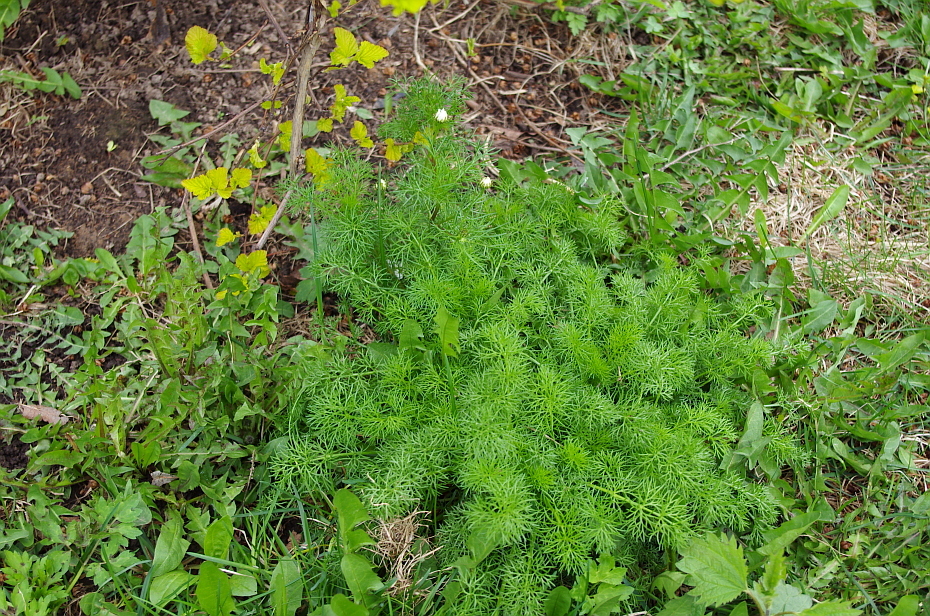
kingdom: Plantae
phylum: Tracheophyta
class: Magnoliopsida
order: Asterales
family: Asteraceae
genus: Tripleurospermum
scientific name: Tripleurospermum inodorum
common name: Scentless mayweed
